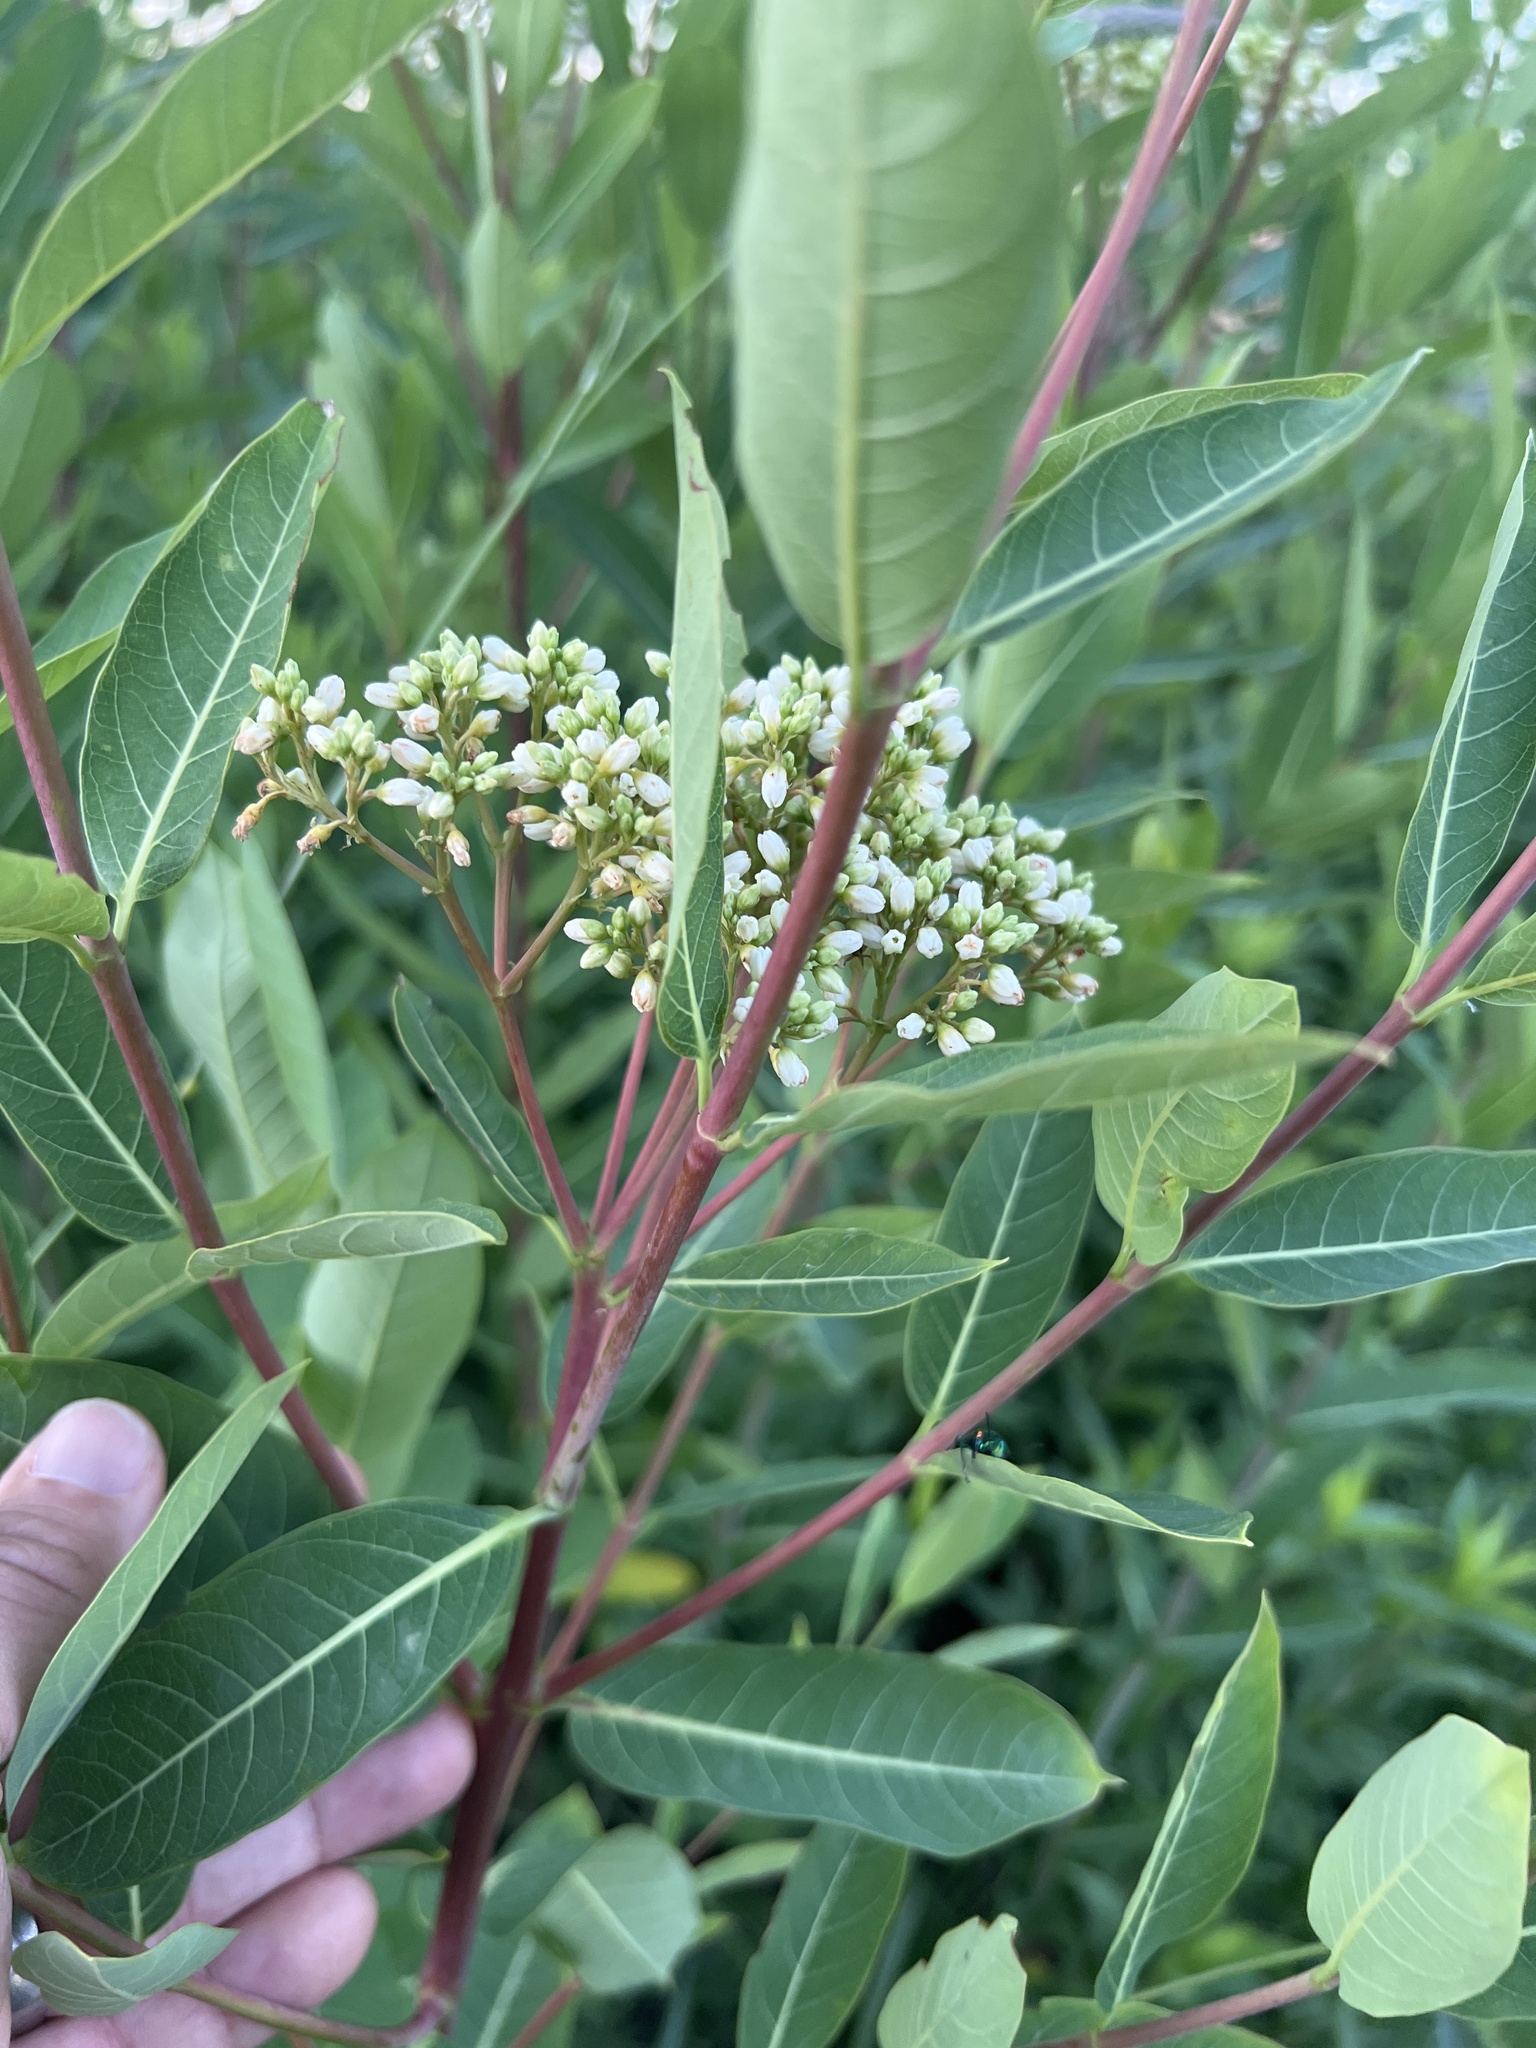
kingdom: Plantae
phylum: Tracheophyta
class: Magnoliopsida
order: Gentianales
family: Apocynaceae
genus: Apocynum
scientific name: Apocynum cannabinum
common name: Hemp dogbane
